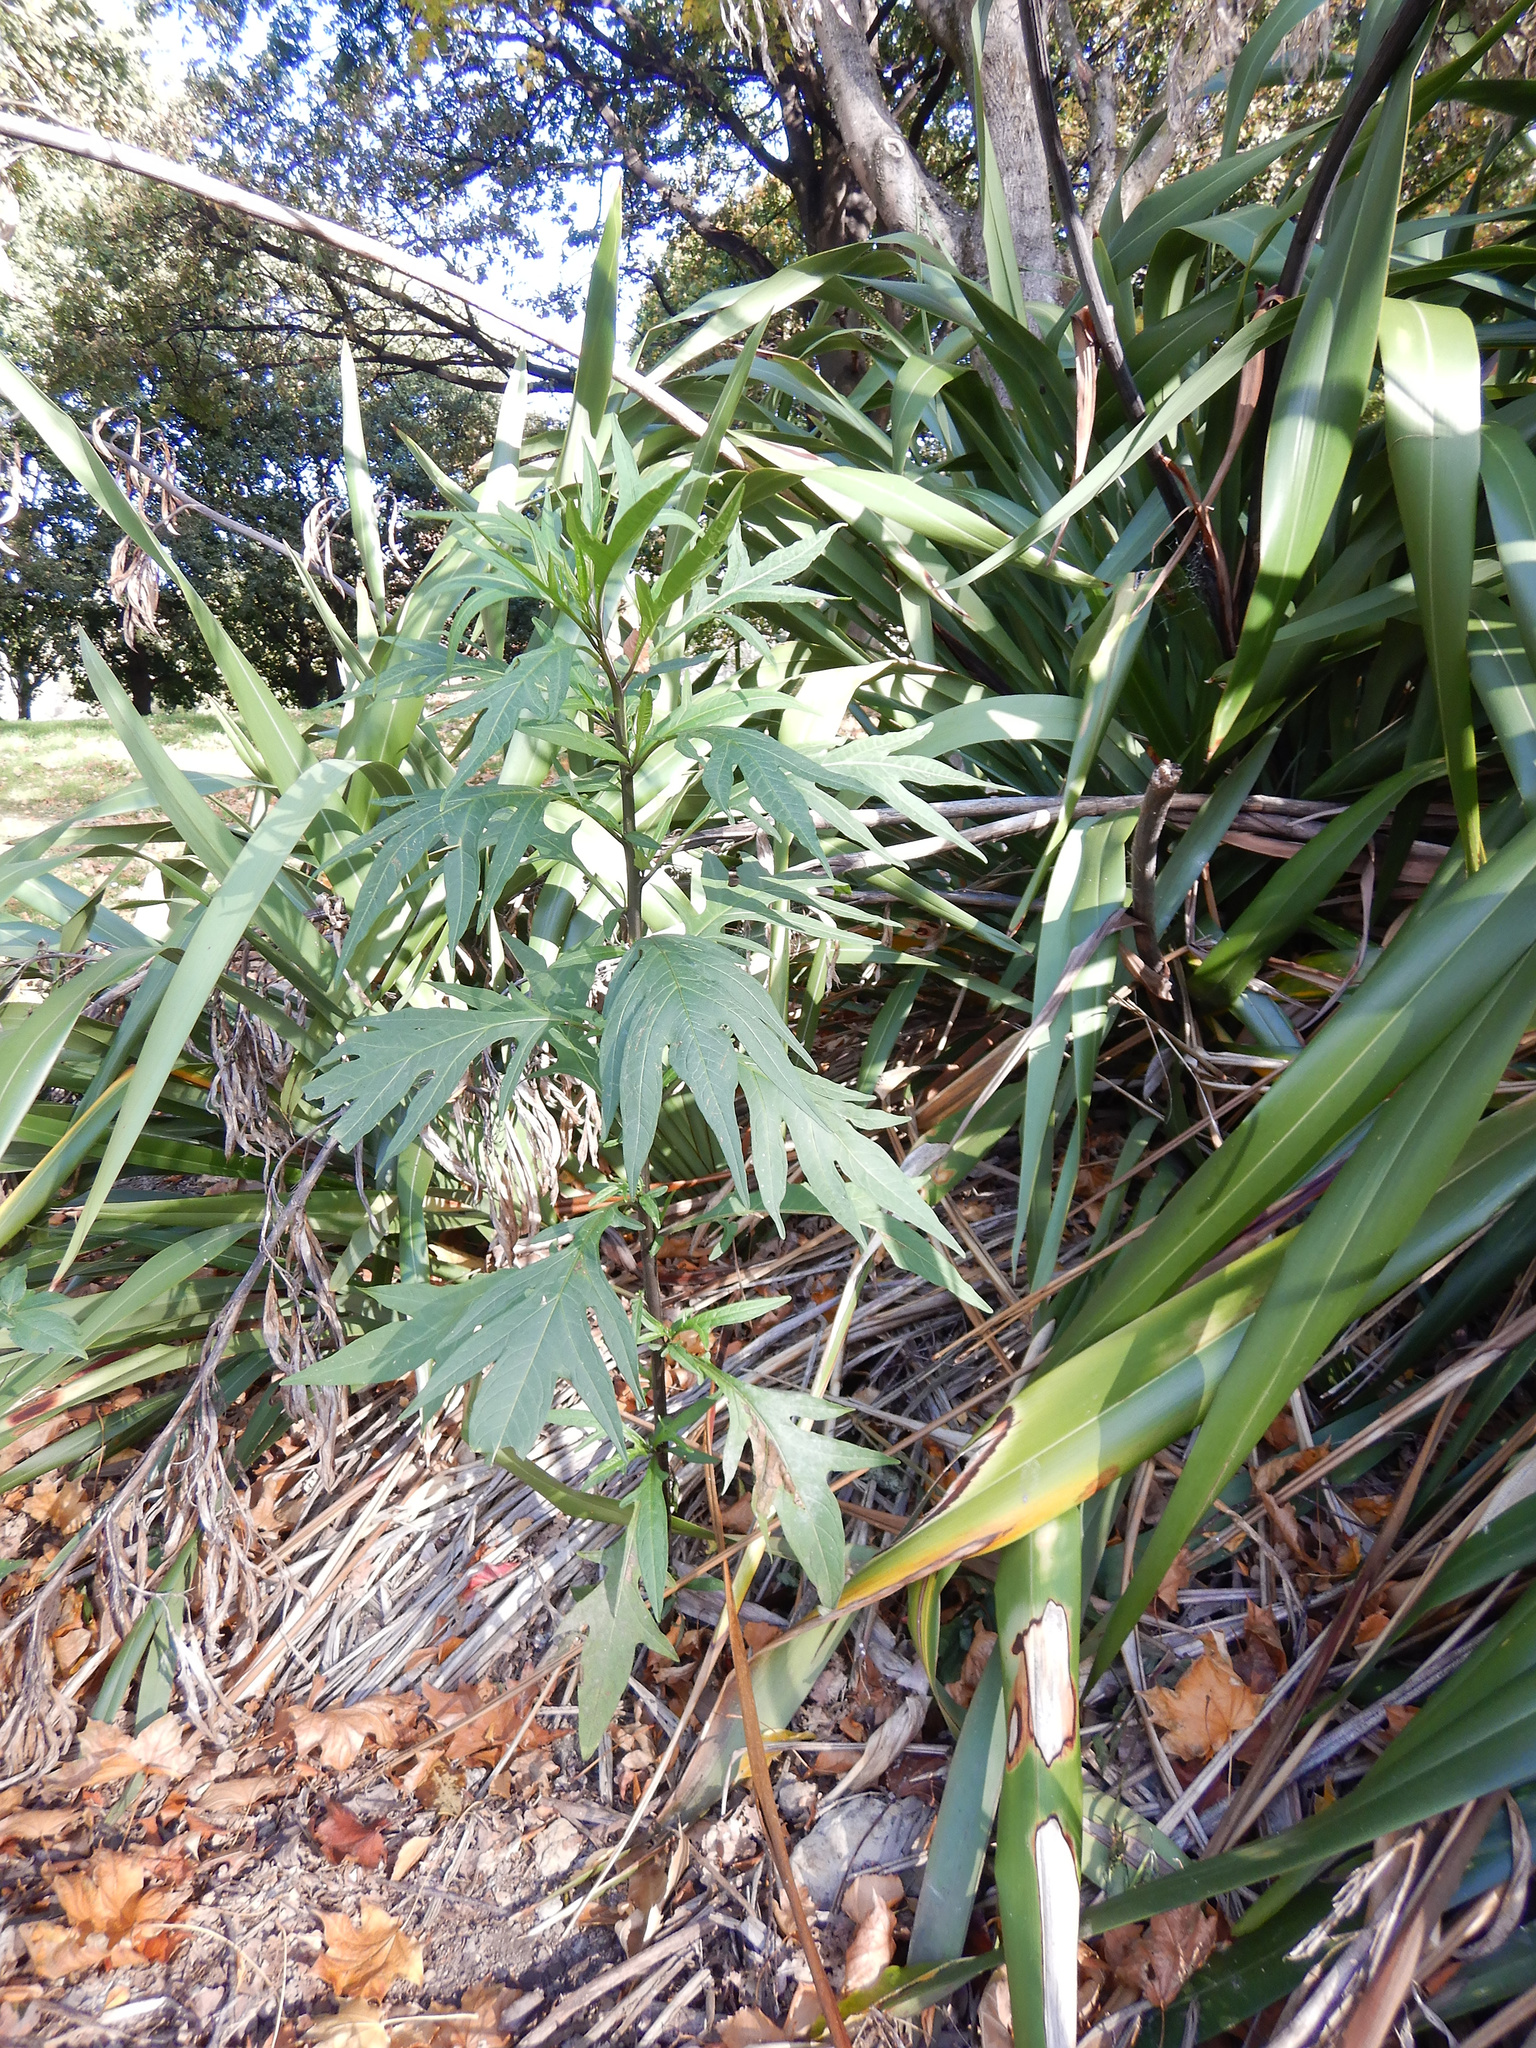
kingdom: Plantae
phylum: Tracheophyta
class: Magnoliopsida
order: Solanales
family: Solanaceae
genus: Solanum
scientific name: Solanum
